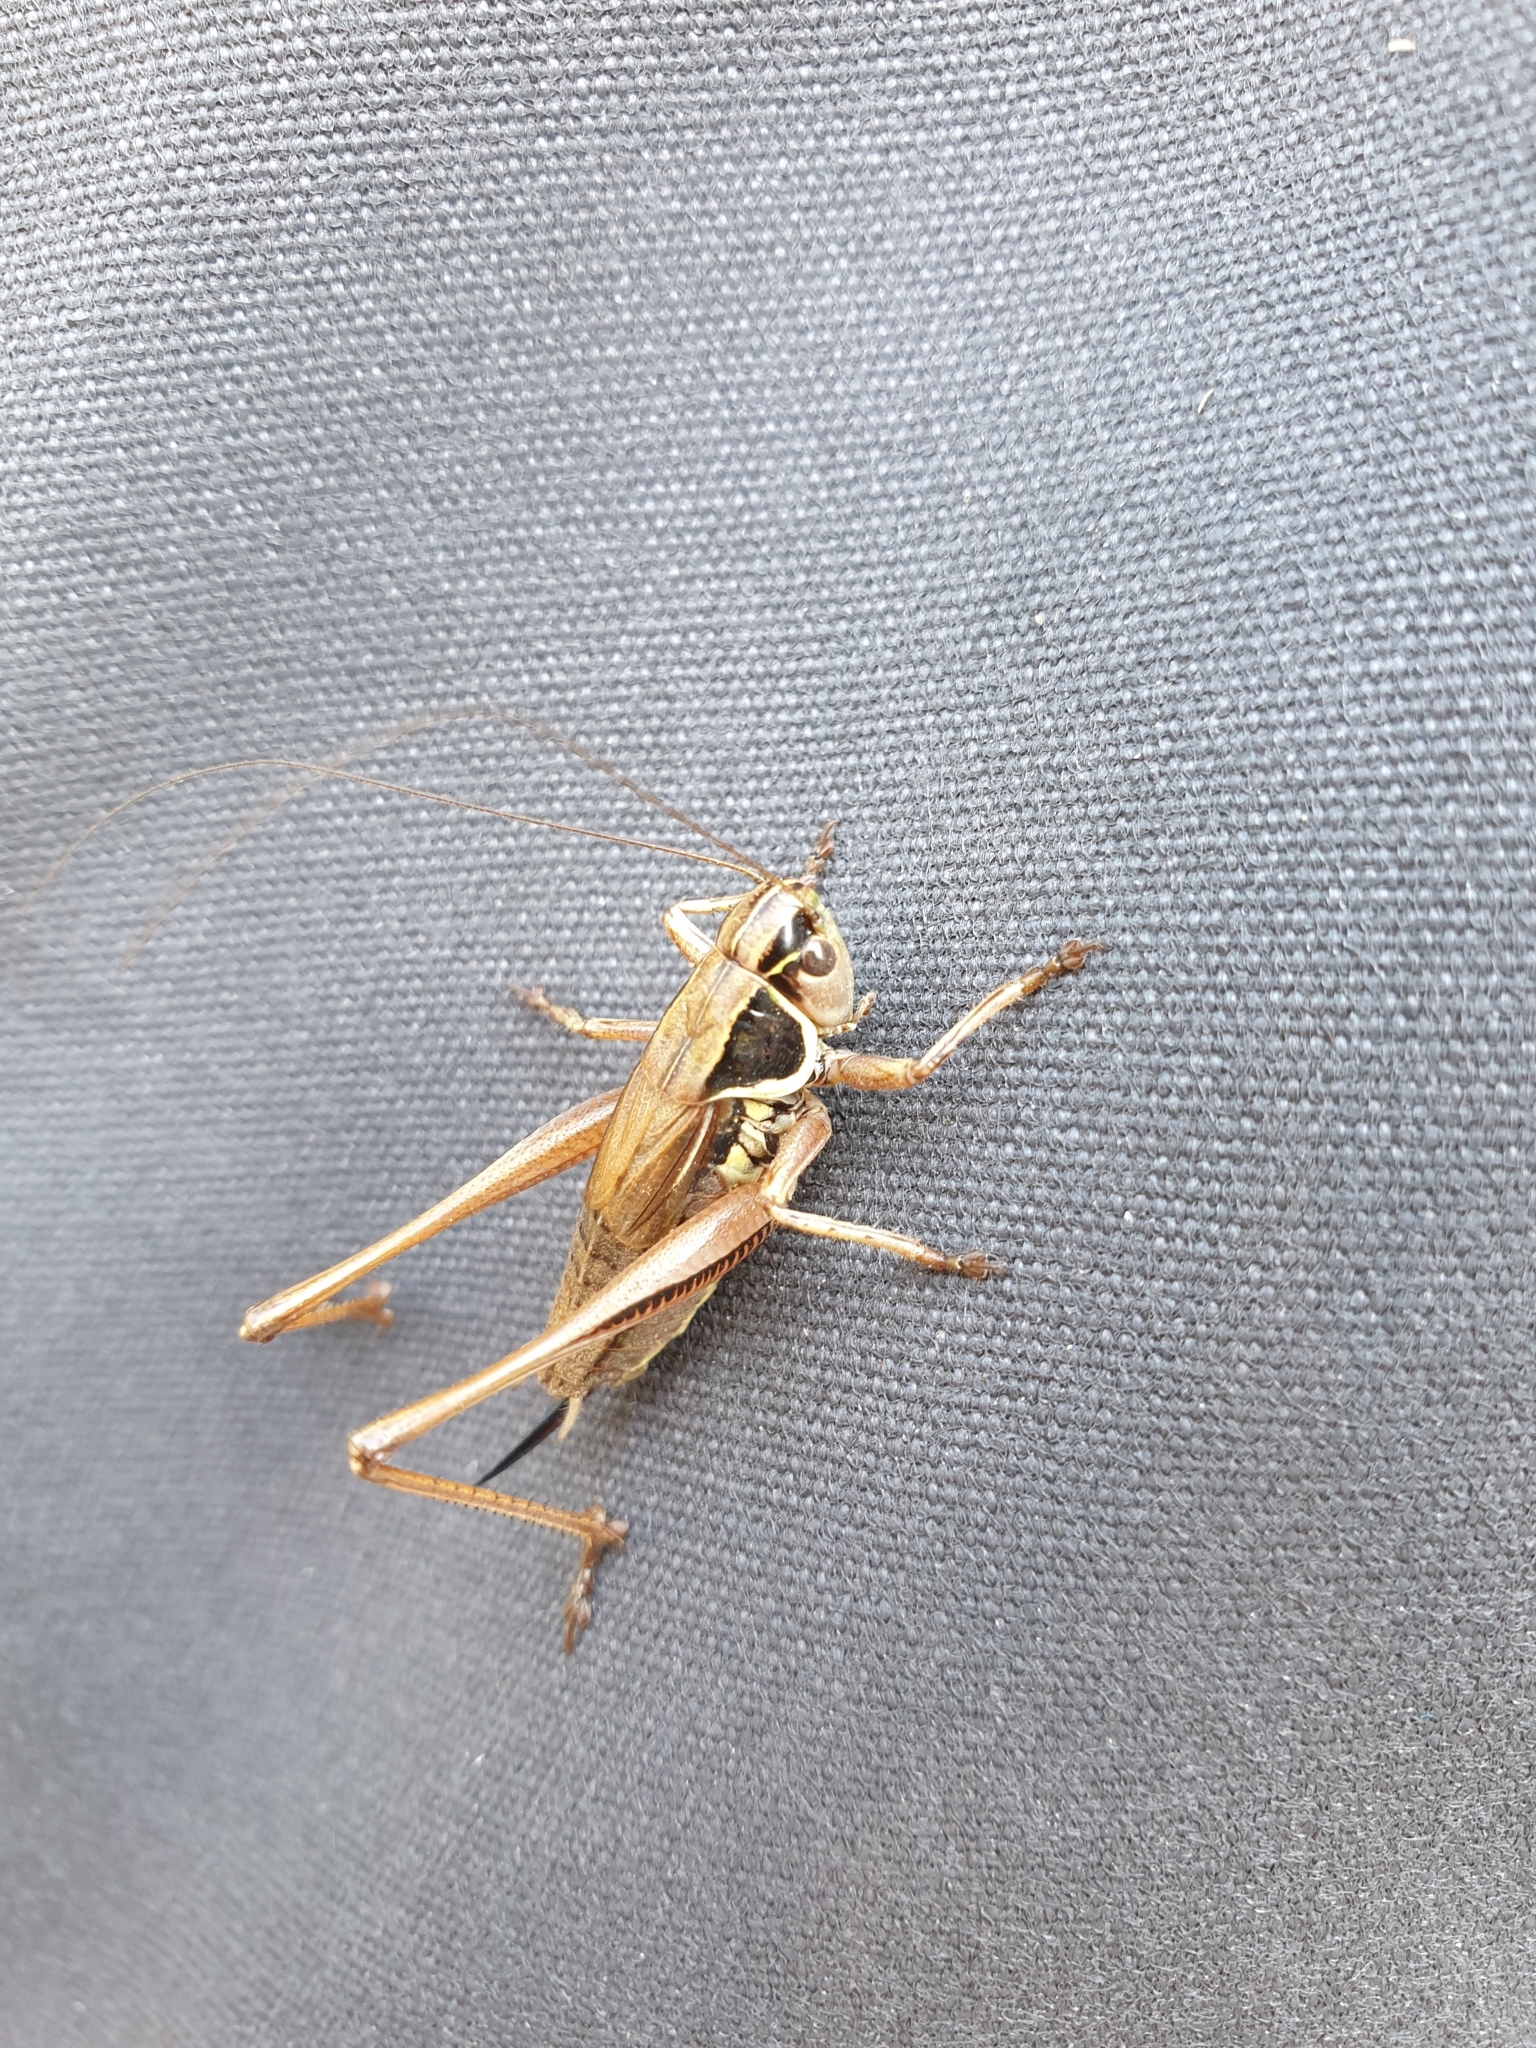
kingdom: Animalia
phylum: Arthropoda
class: Insecta
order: Orthoptera
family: Tettigoniidae
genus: Roeseliana
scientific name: Roeseliana roeselii
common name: Roesel's bush cricket
